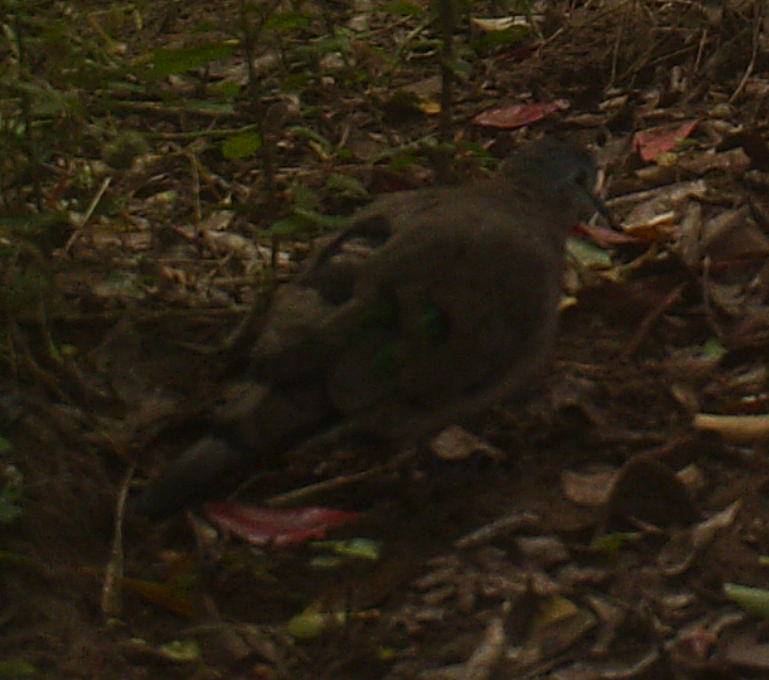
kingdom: Animalia
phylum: Chordata
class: Aves
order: Columbiformes
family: Columbidae
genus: Turtur
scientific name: Turtur chalcospilos
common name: Emerald-spotted wood dove
